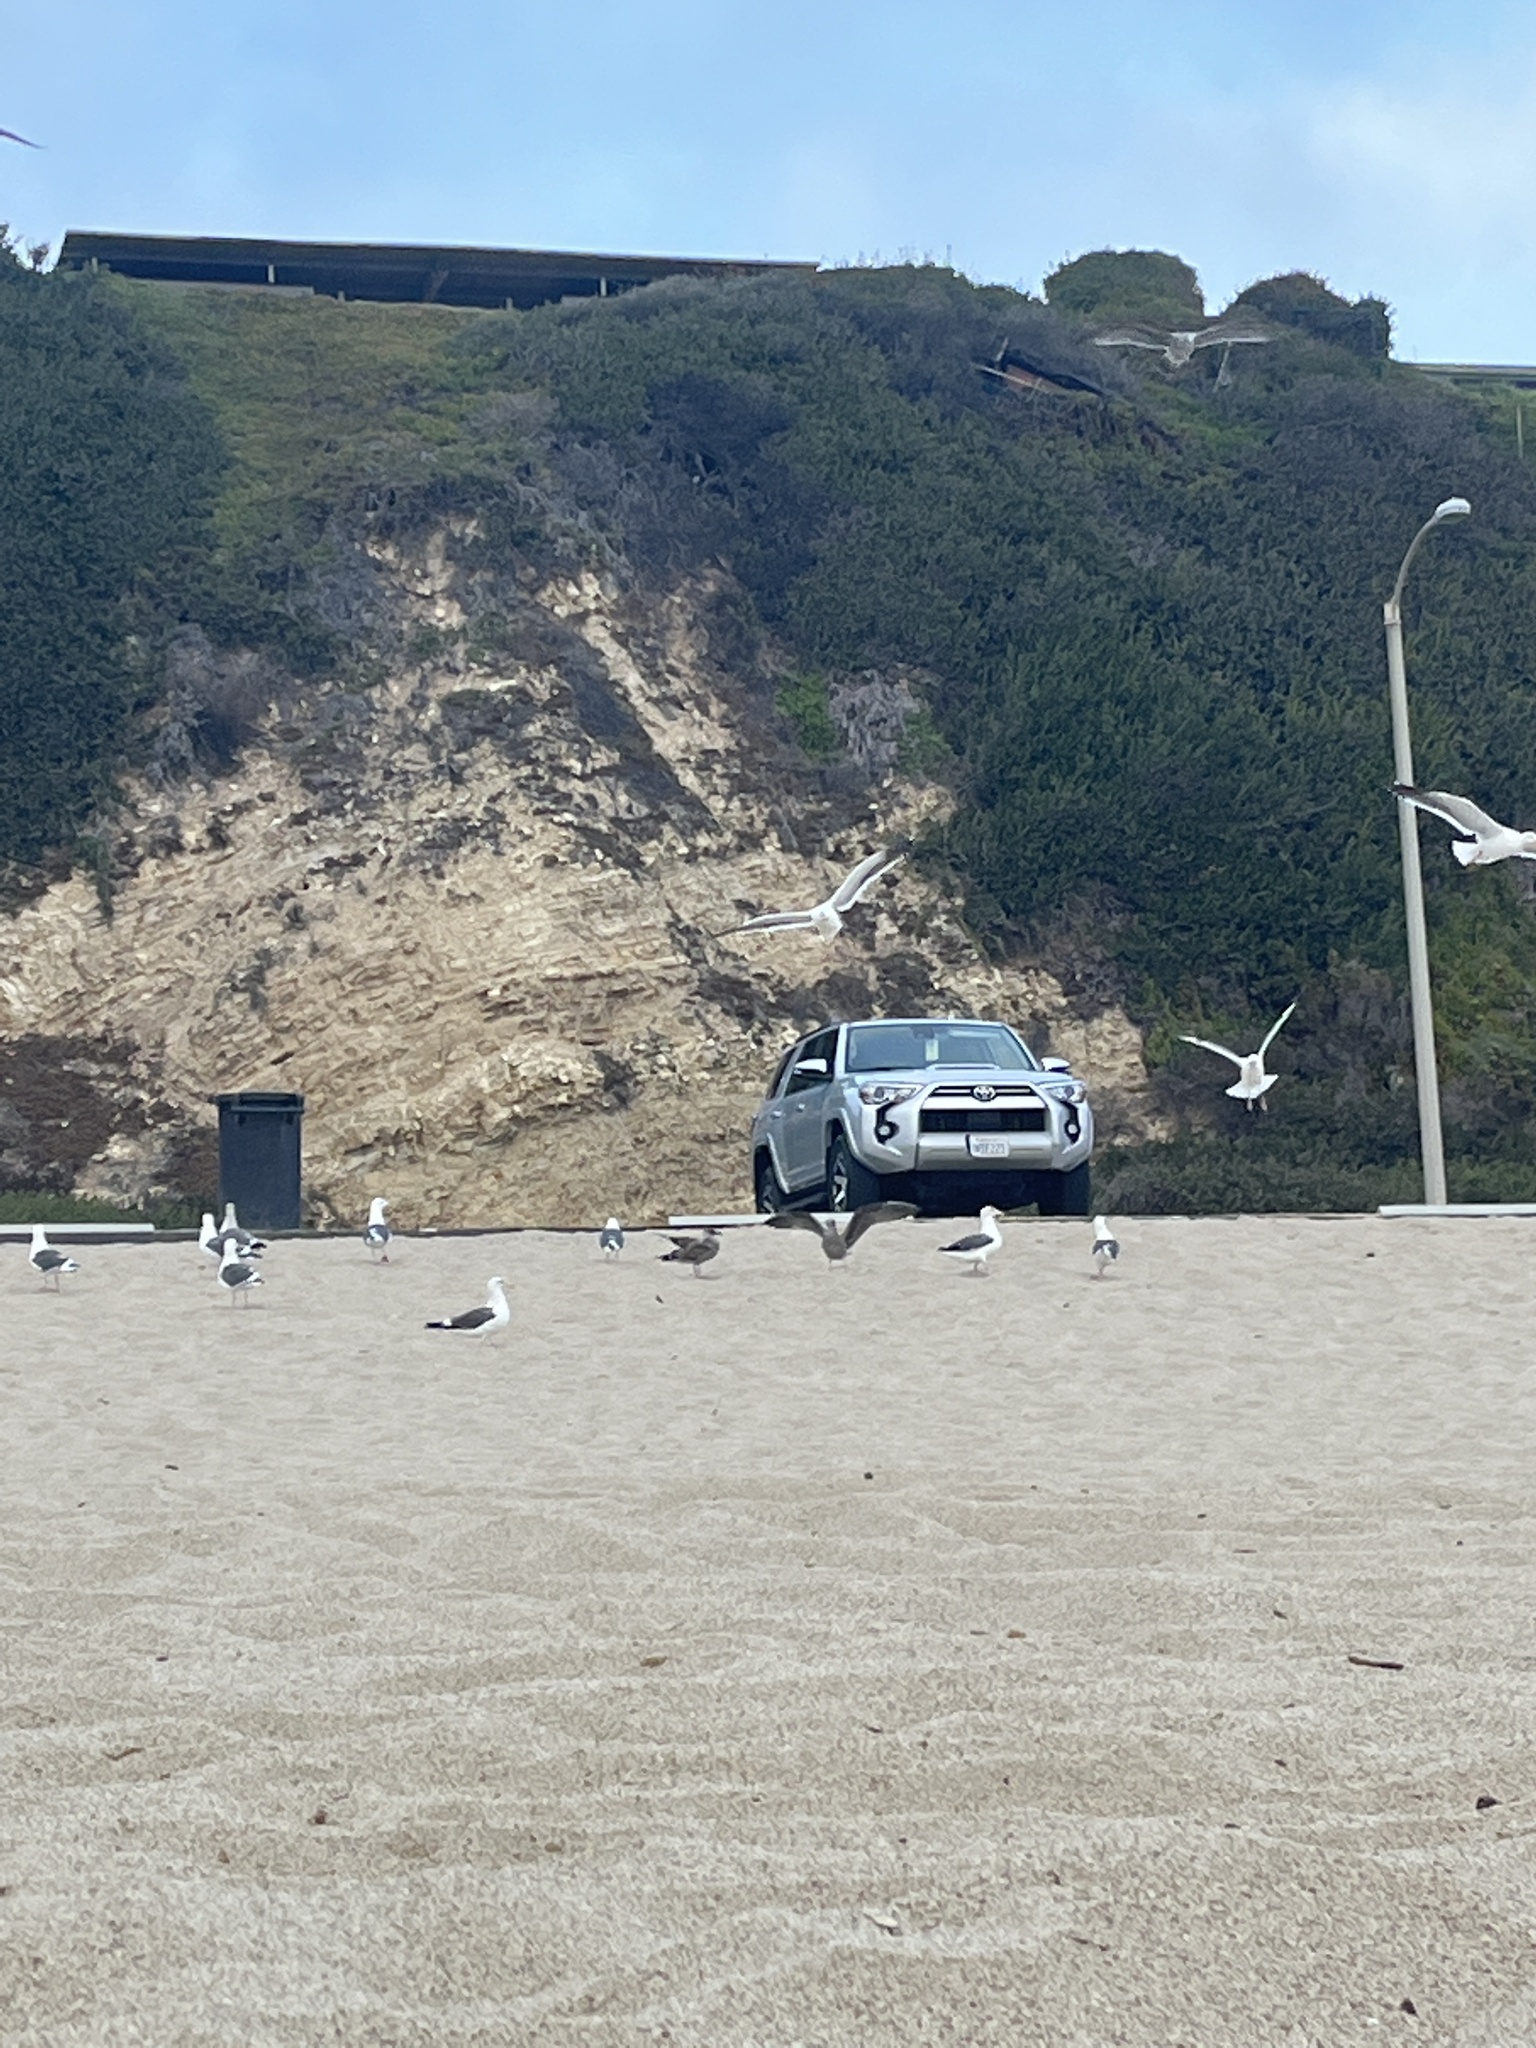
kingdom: Animalia
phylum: Chordata
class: Aves
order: Charadriiformes
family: Laridae
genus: Larus
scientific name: Larus occidentalis
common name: Western gull
